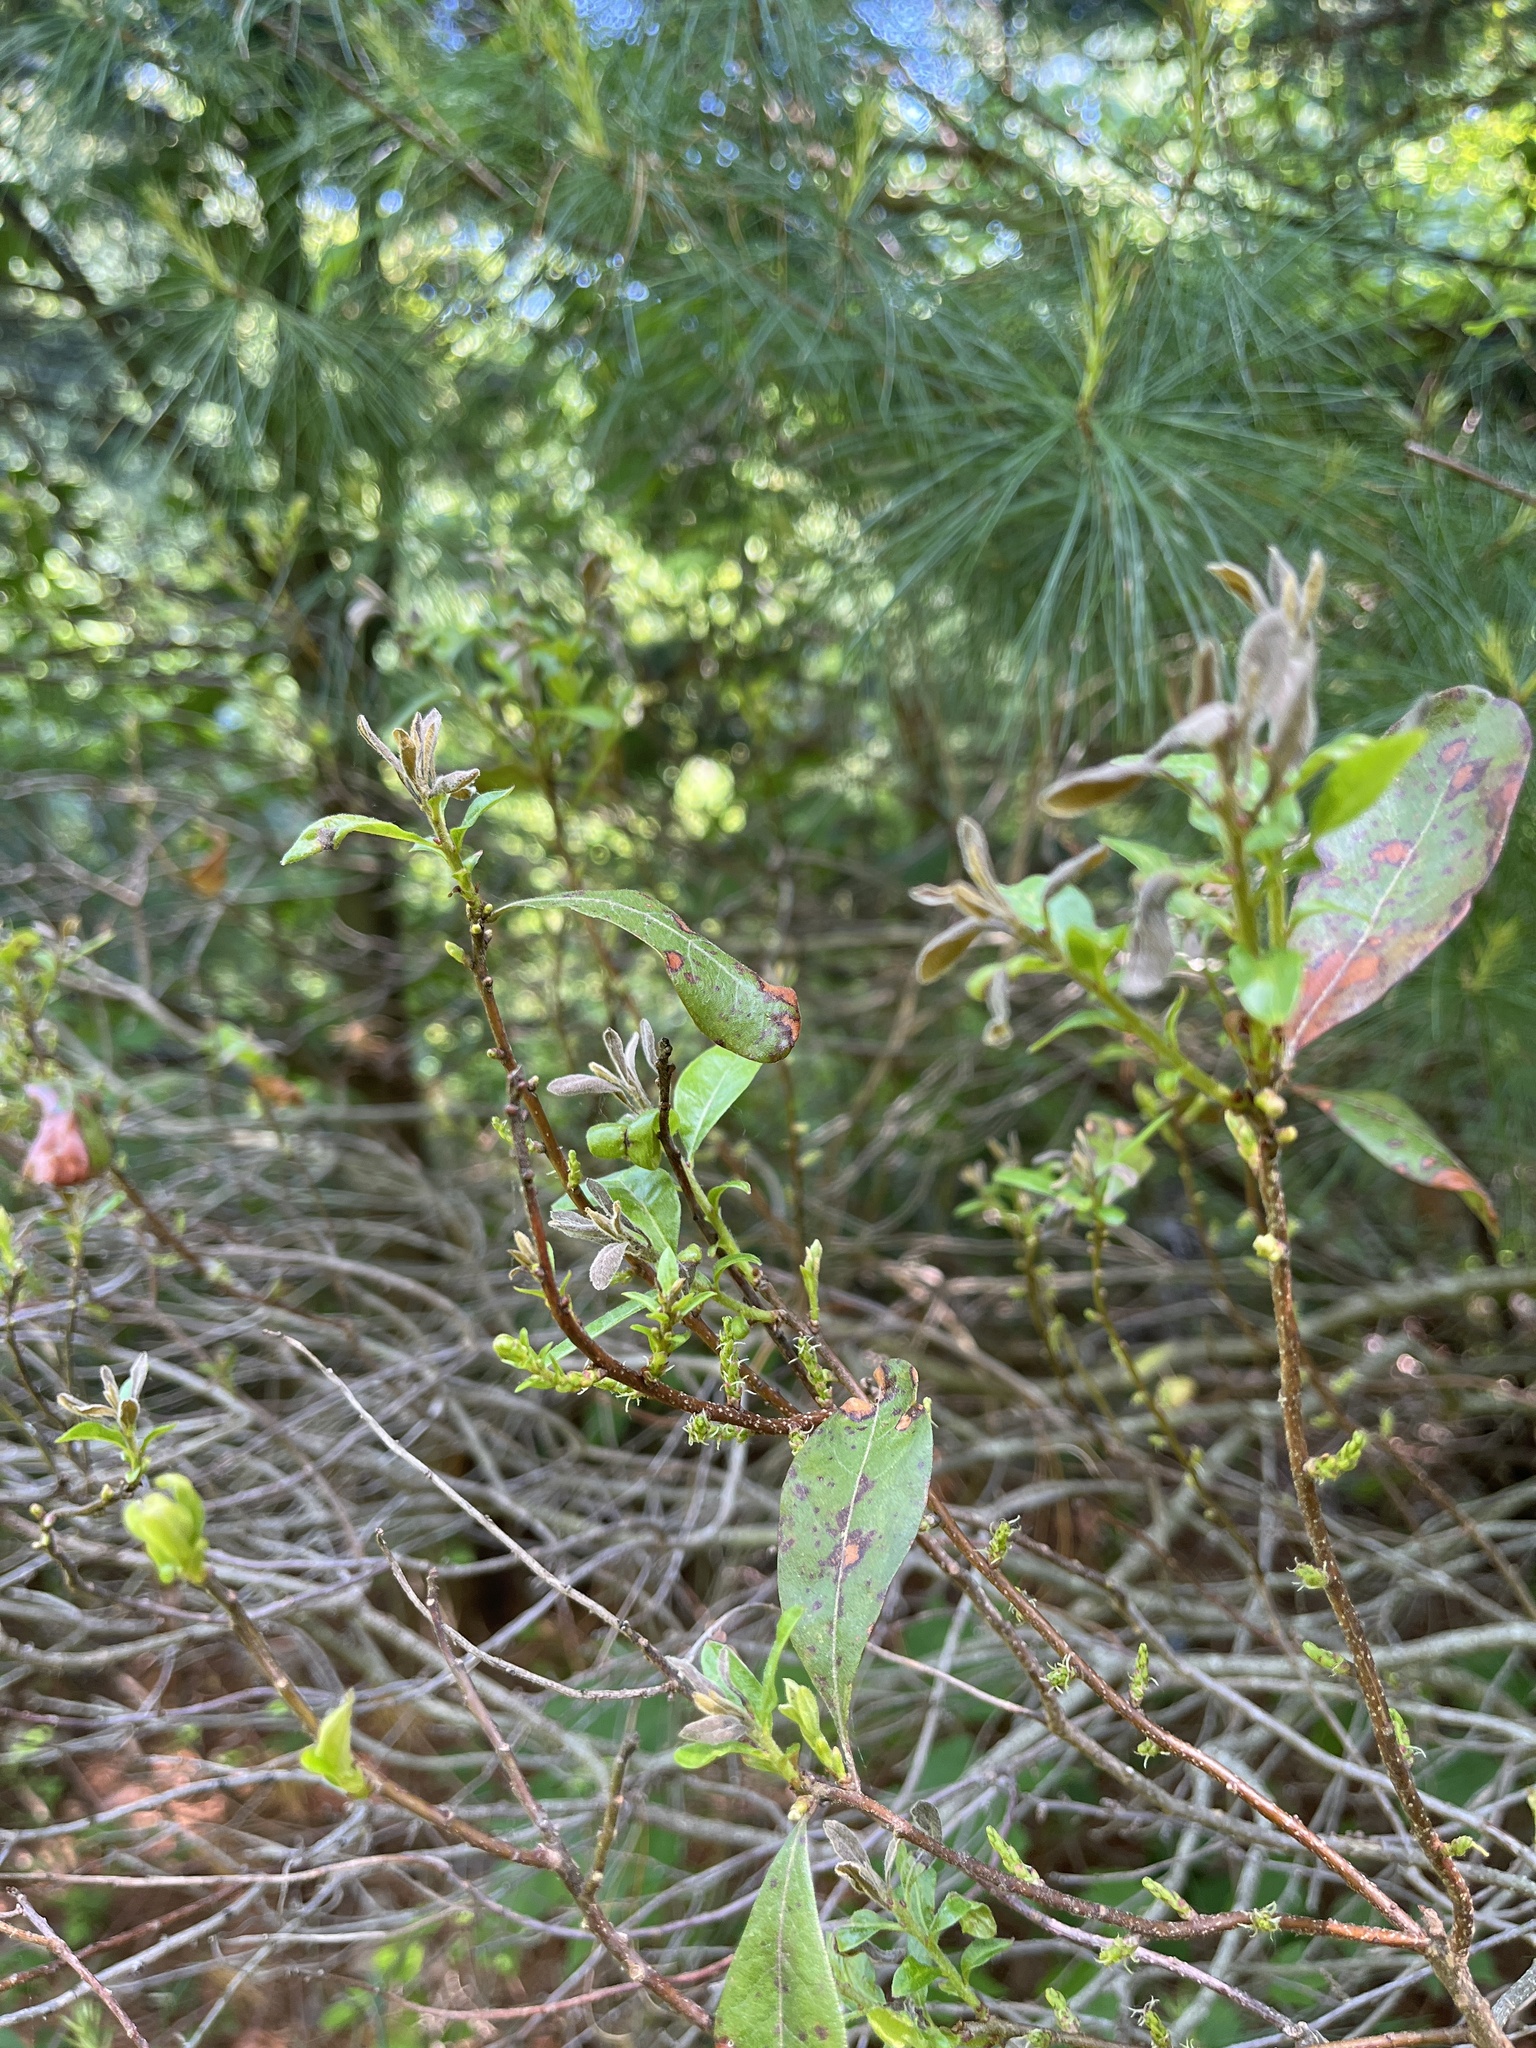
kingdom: Plantae
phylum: Tracheophyta
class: Magnoliopsida
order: Fagales
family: Myricaceae
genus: Morella
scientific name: Morella pensylvanica
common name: Northern bayberry
